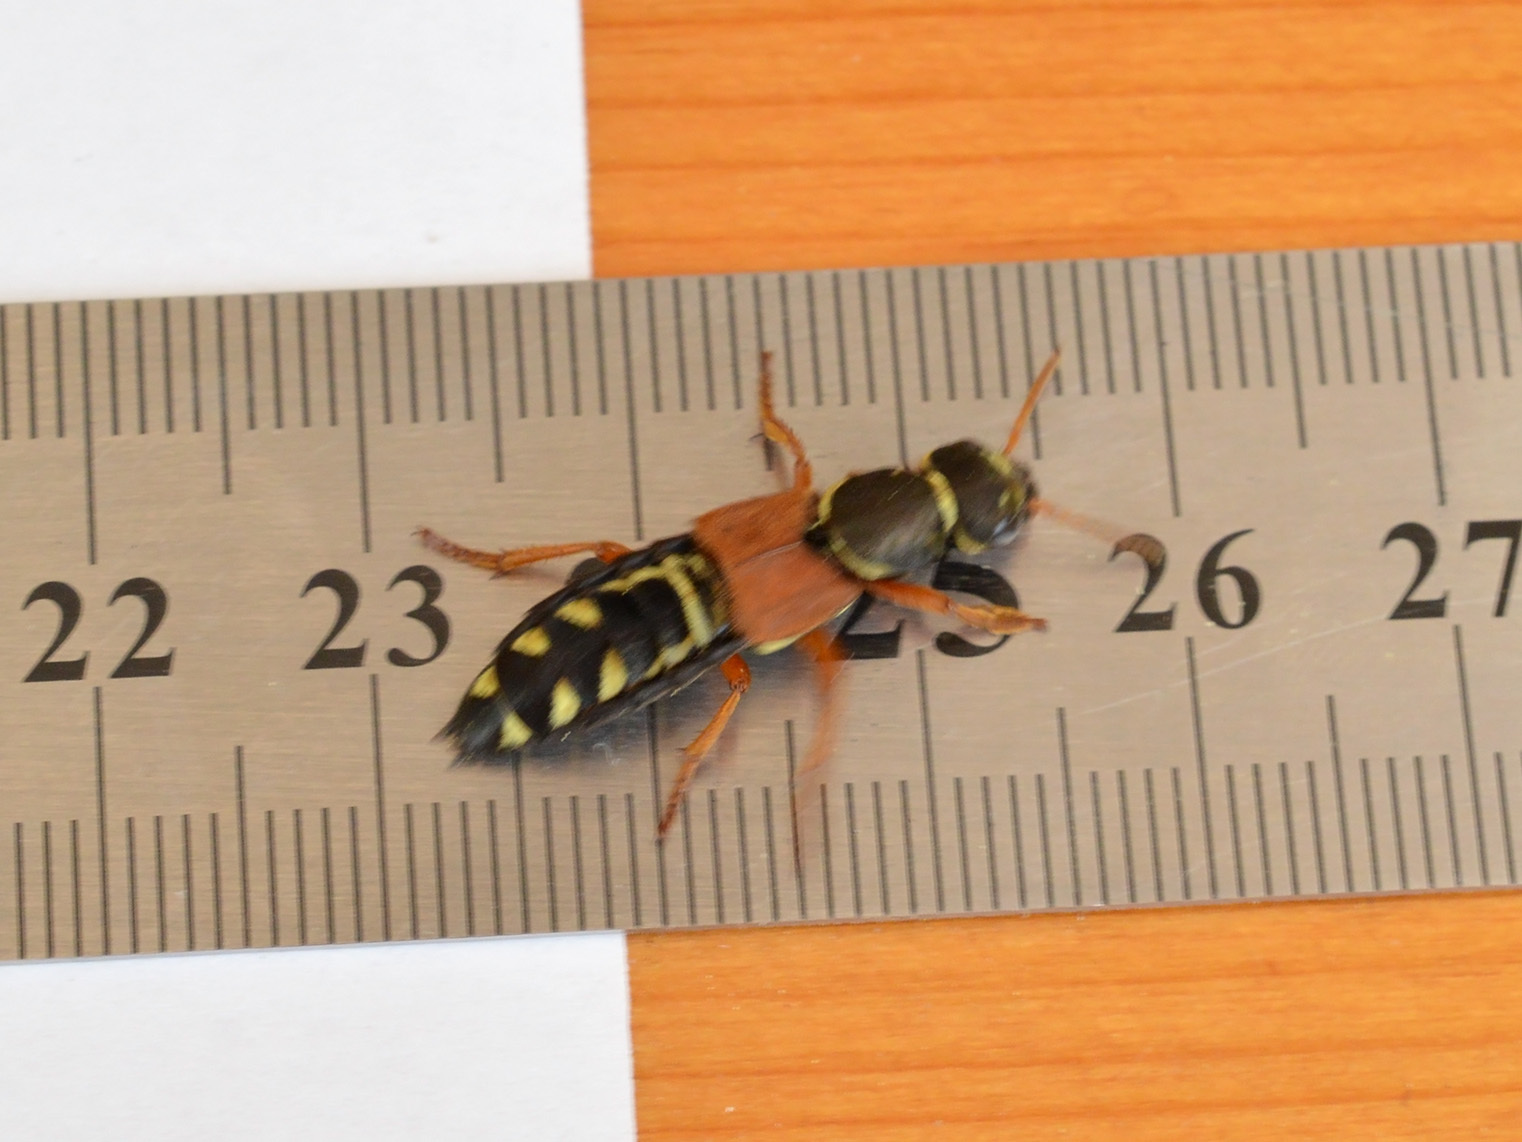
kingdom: Animalia
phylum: Arthropoda
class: Insecta
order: Coleoptera
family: Staphylinidae
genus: Staphylinus
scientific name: Staphylinus caesareus
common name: Staph beetle
